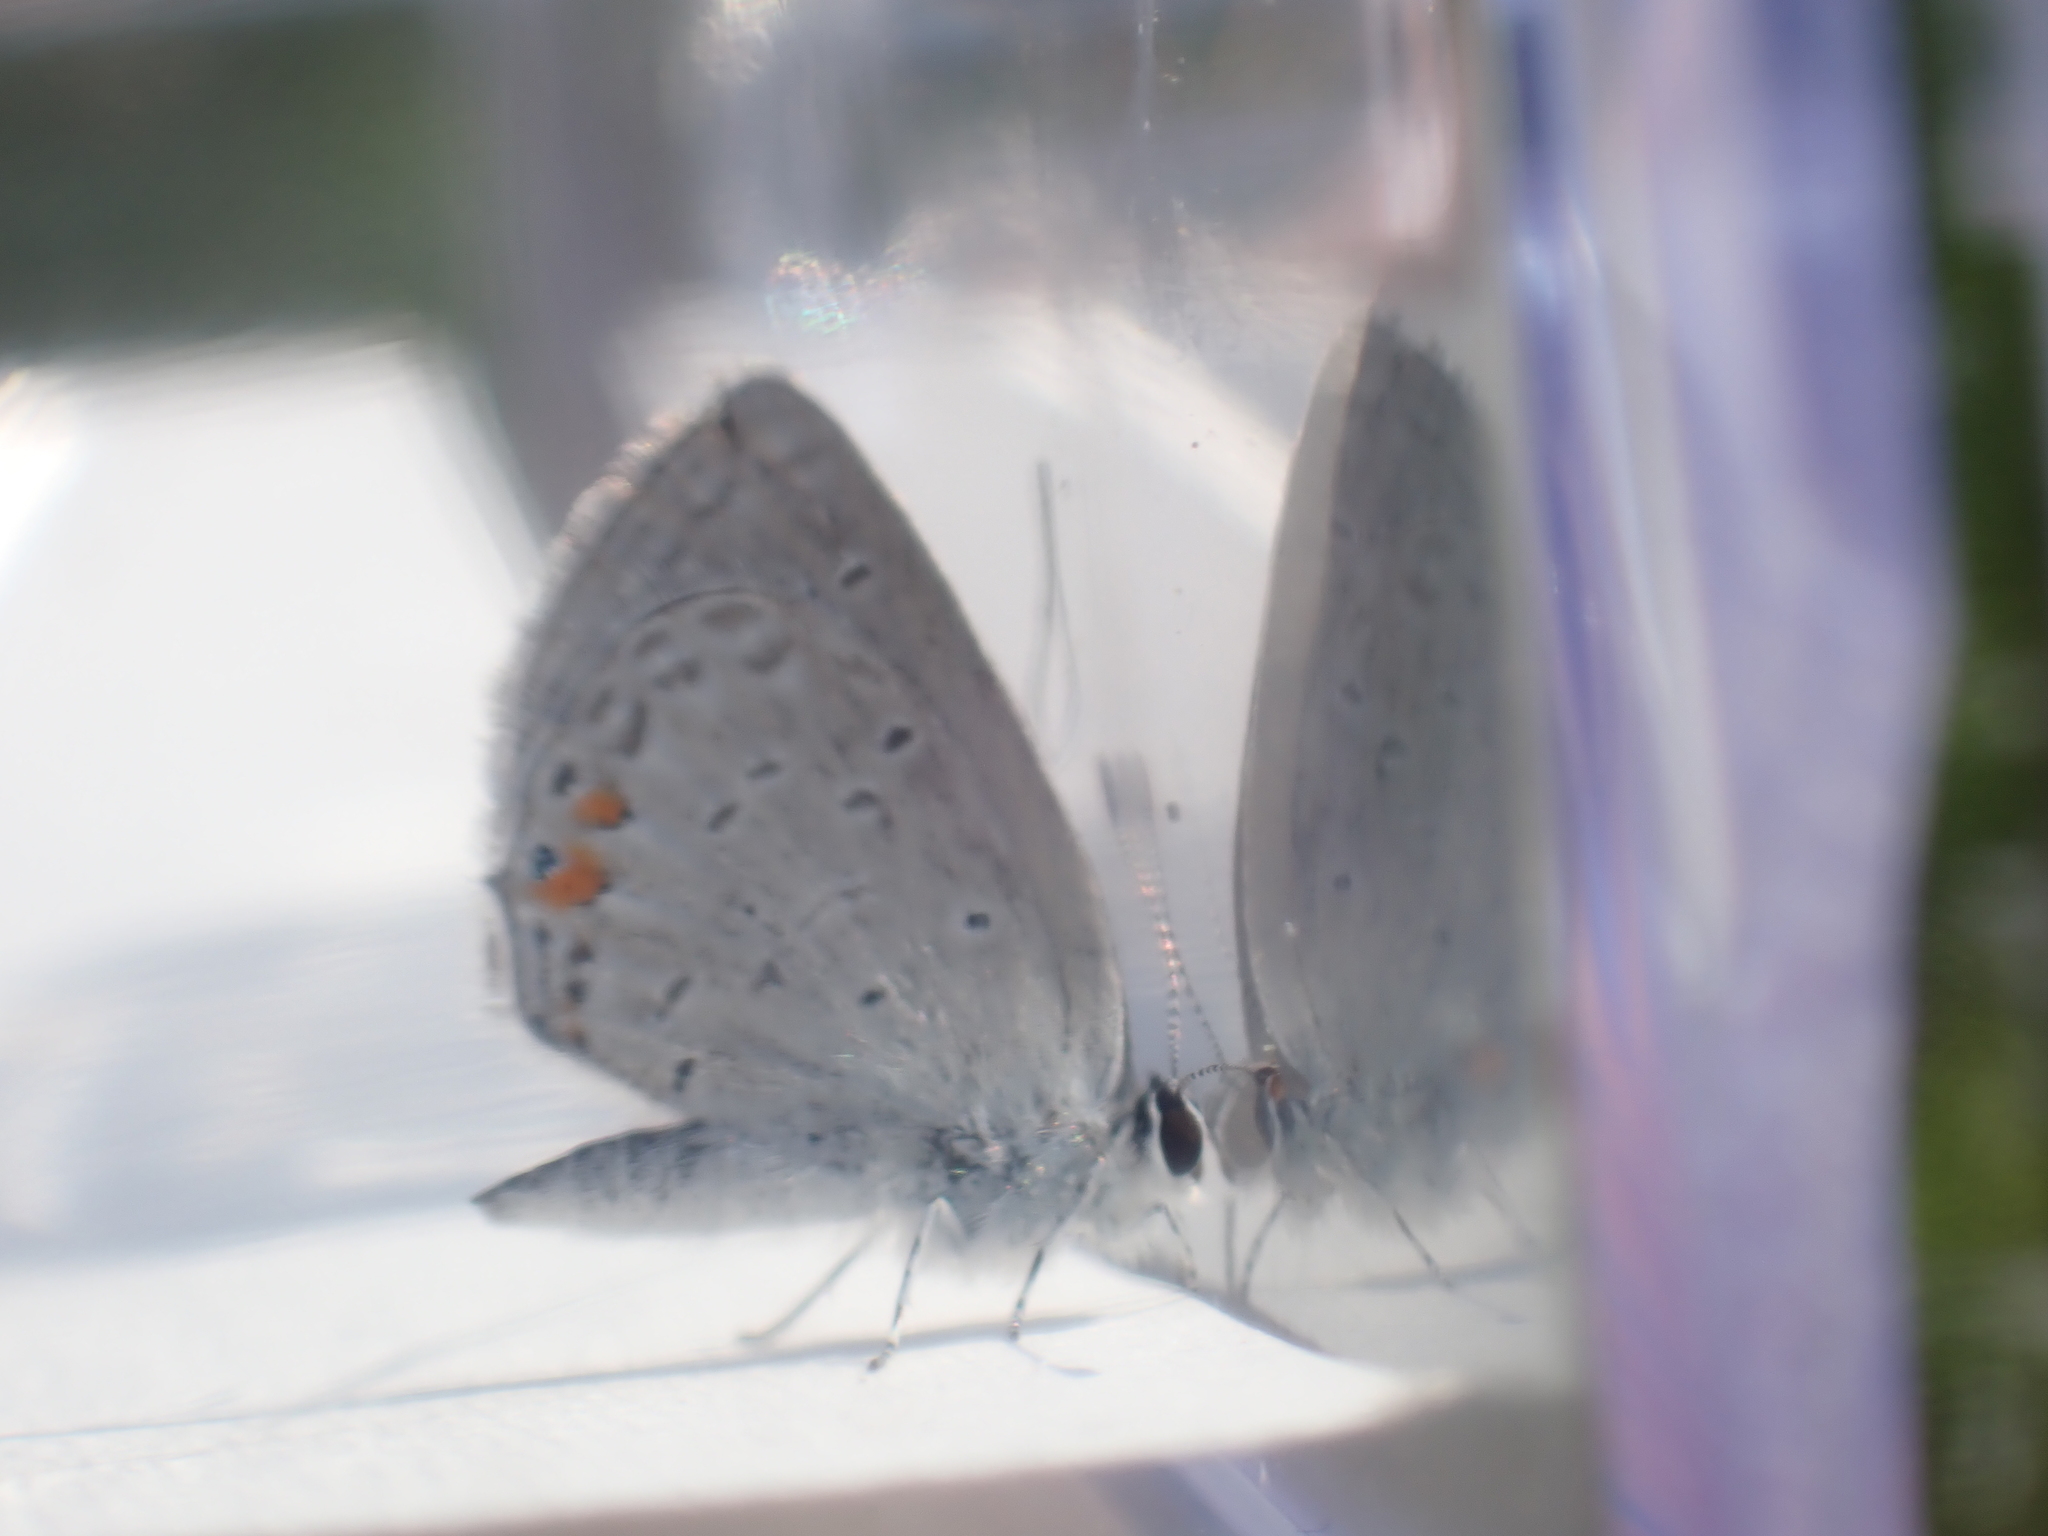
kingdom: Animalia
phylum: Arthropoda
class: Insecta
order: Lepidoptera
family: Lycaenidae
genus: Elkalyce
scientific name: Elkalyce comyntas
